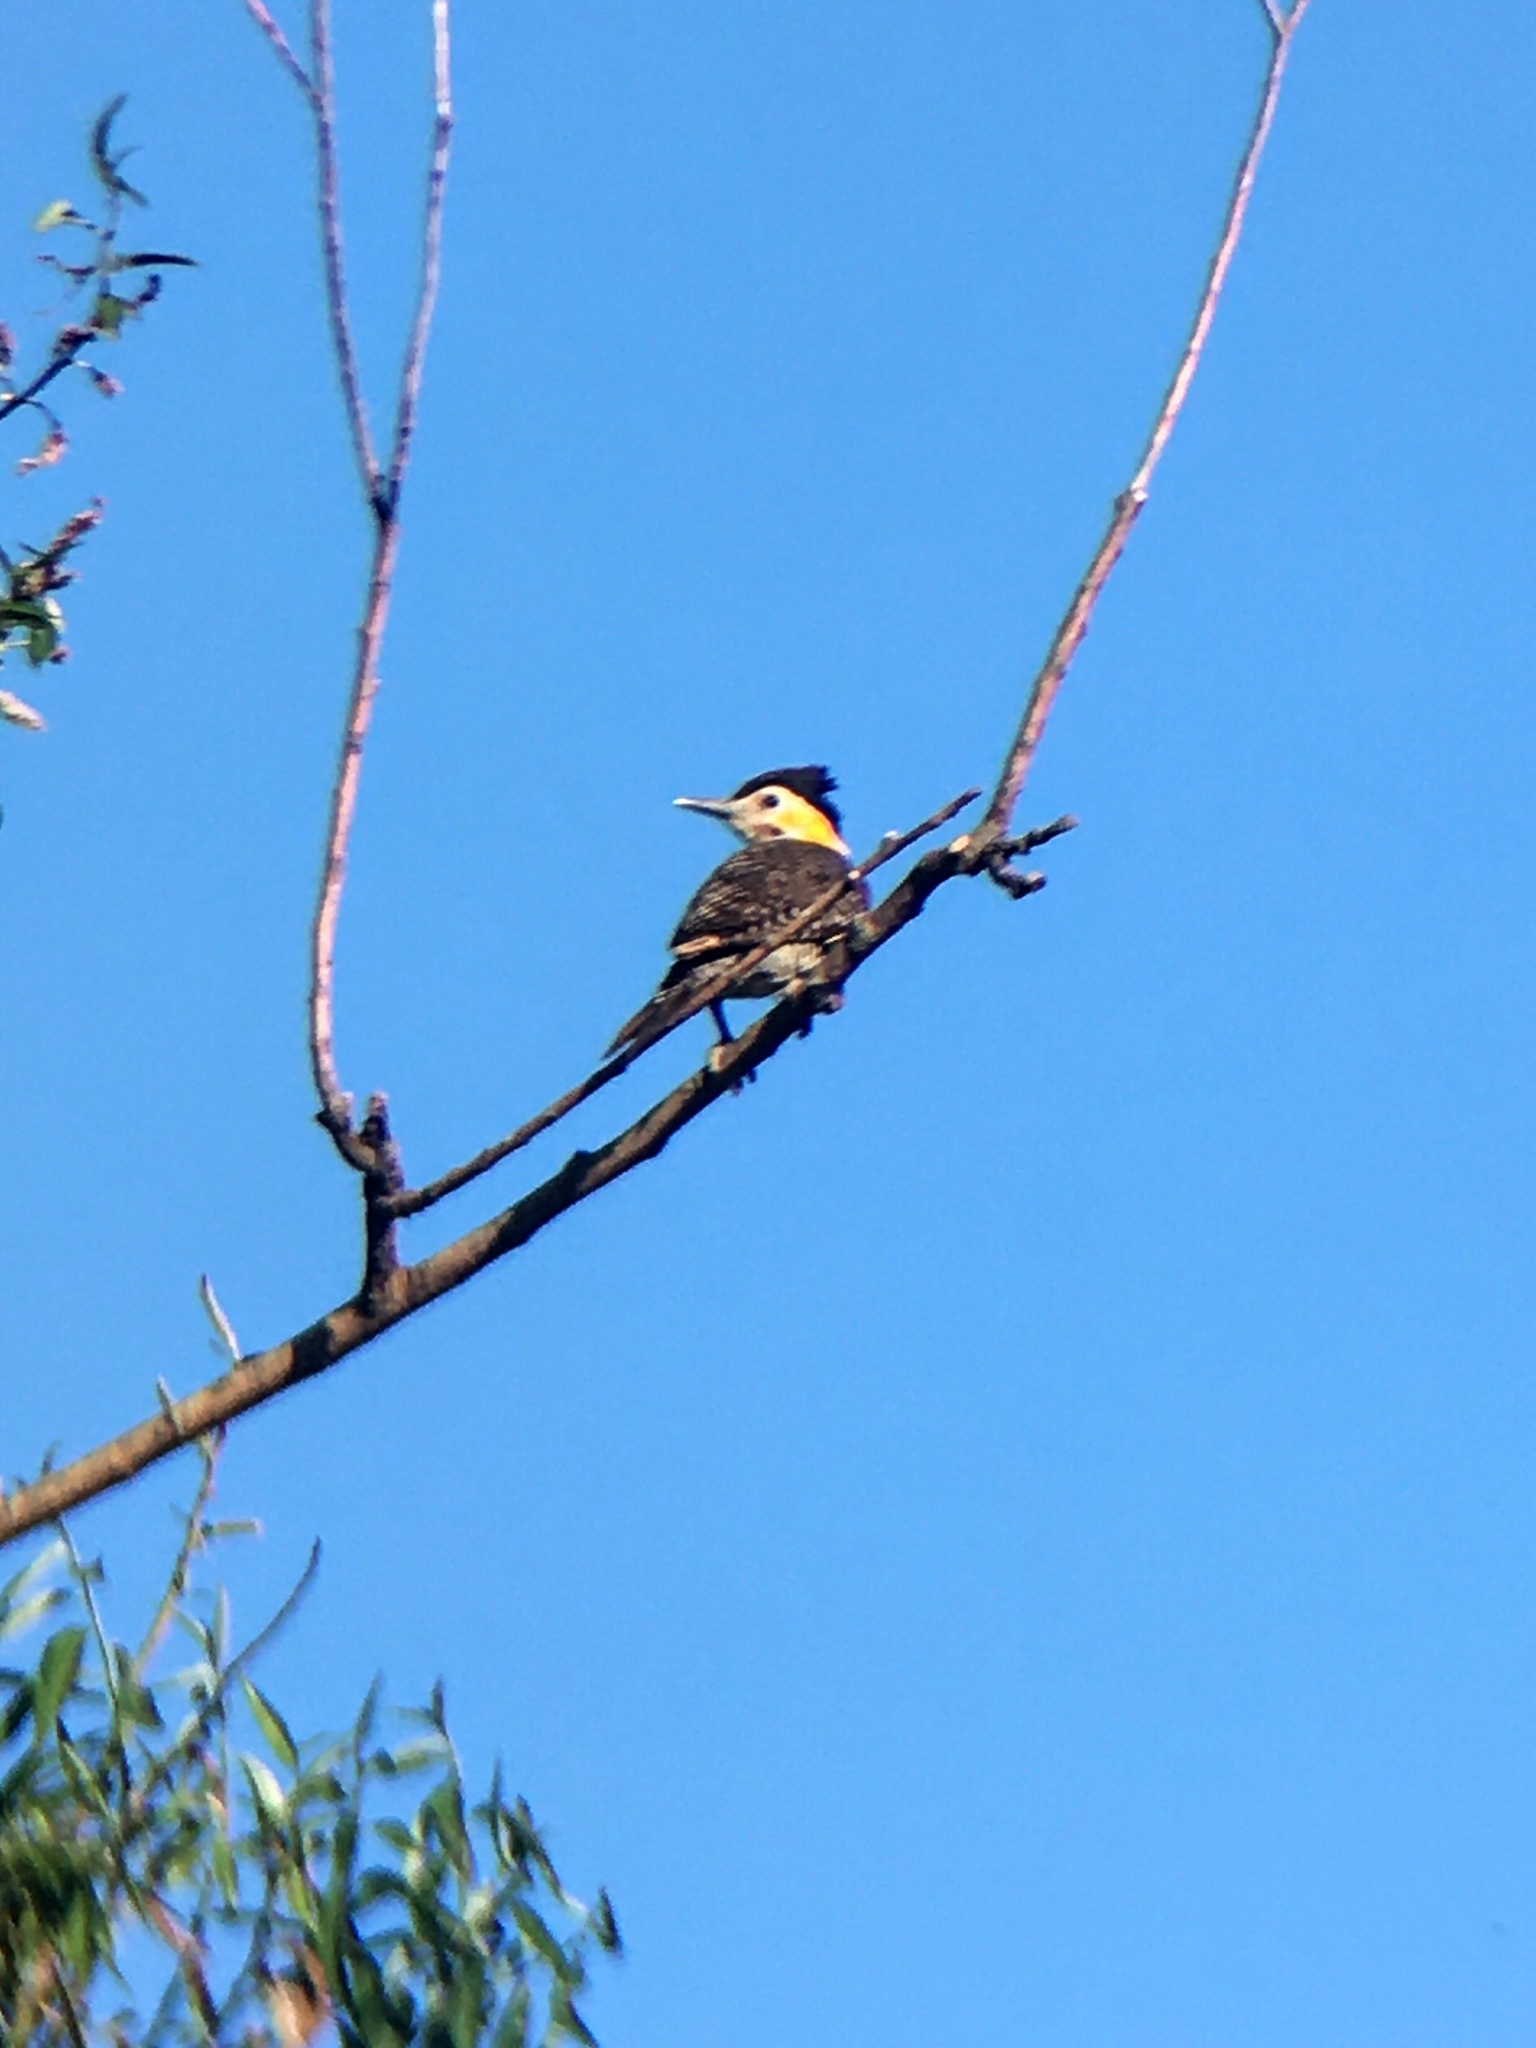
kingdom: Animalia
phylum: Chordata
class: Aves
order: Piciformes
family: Picidae
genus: Colaptes
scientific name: Colaptes campestris
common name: Campo flicker
